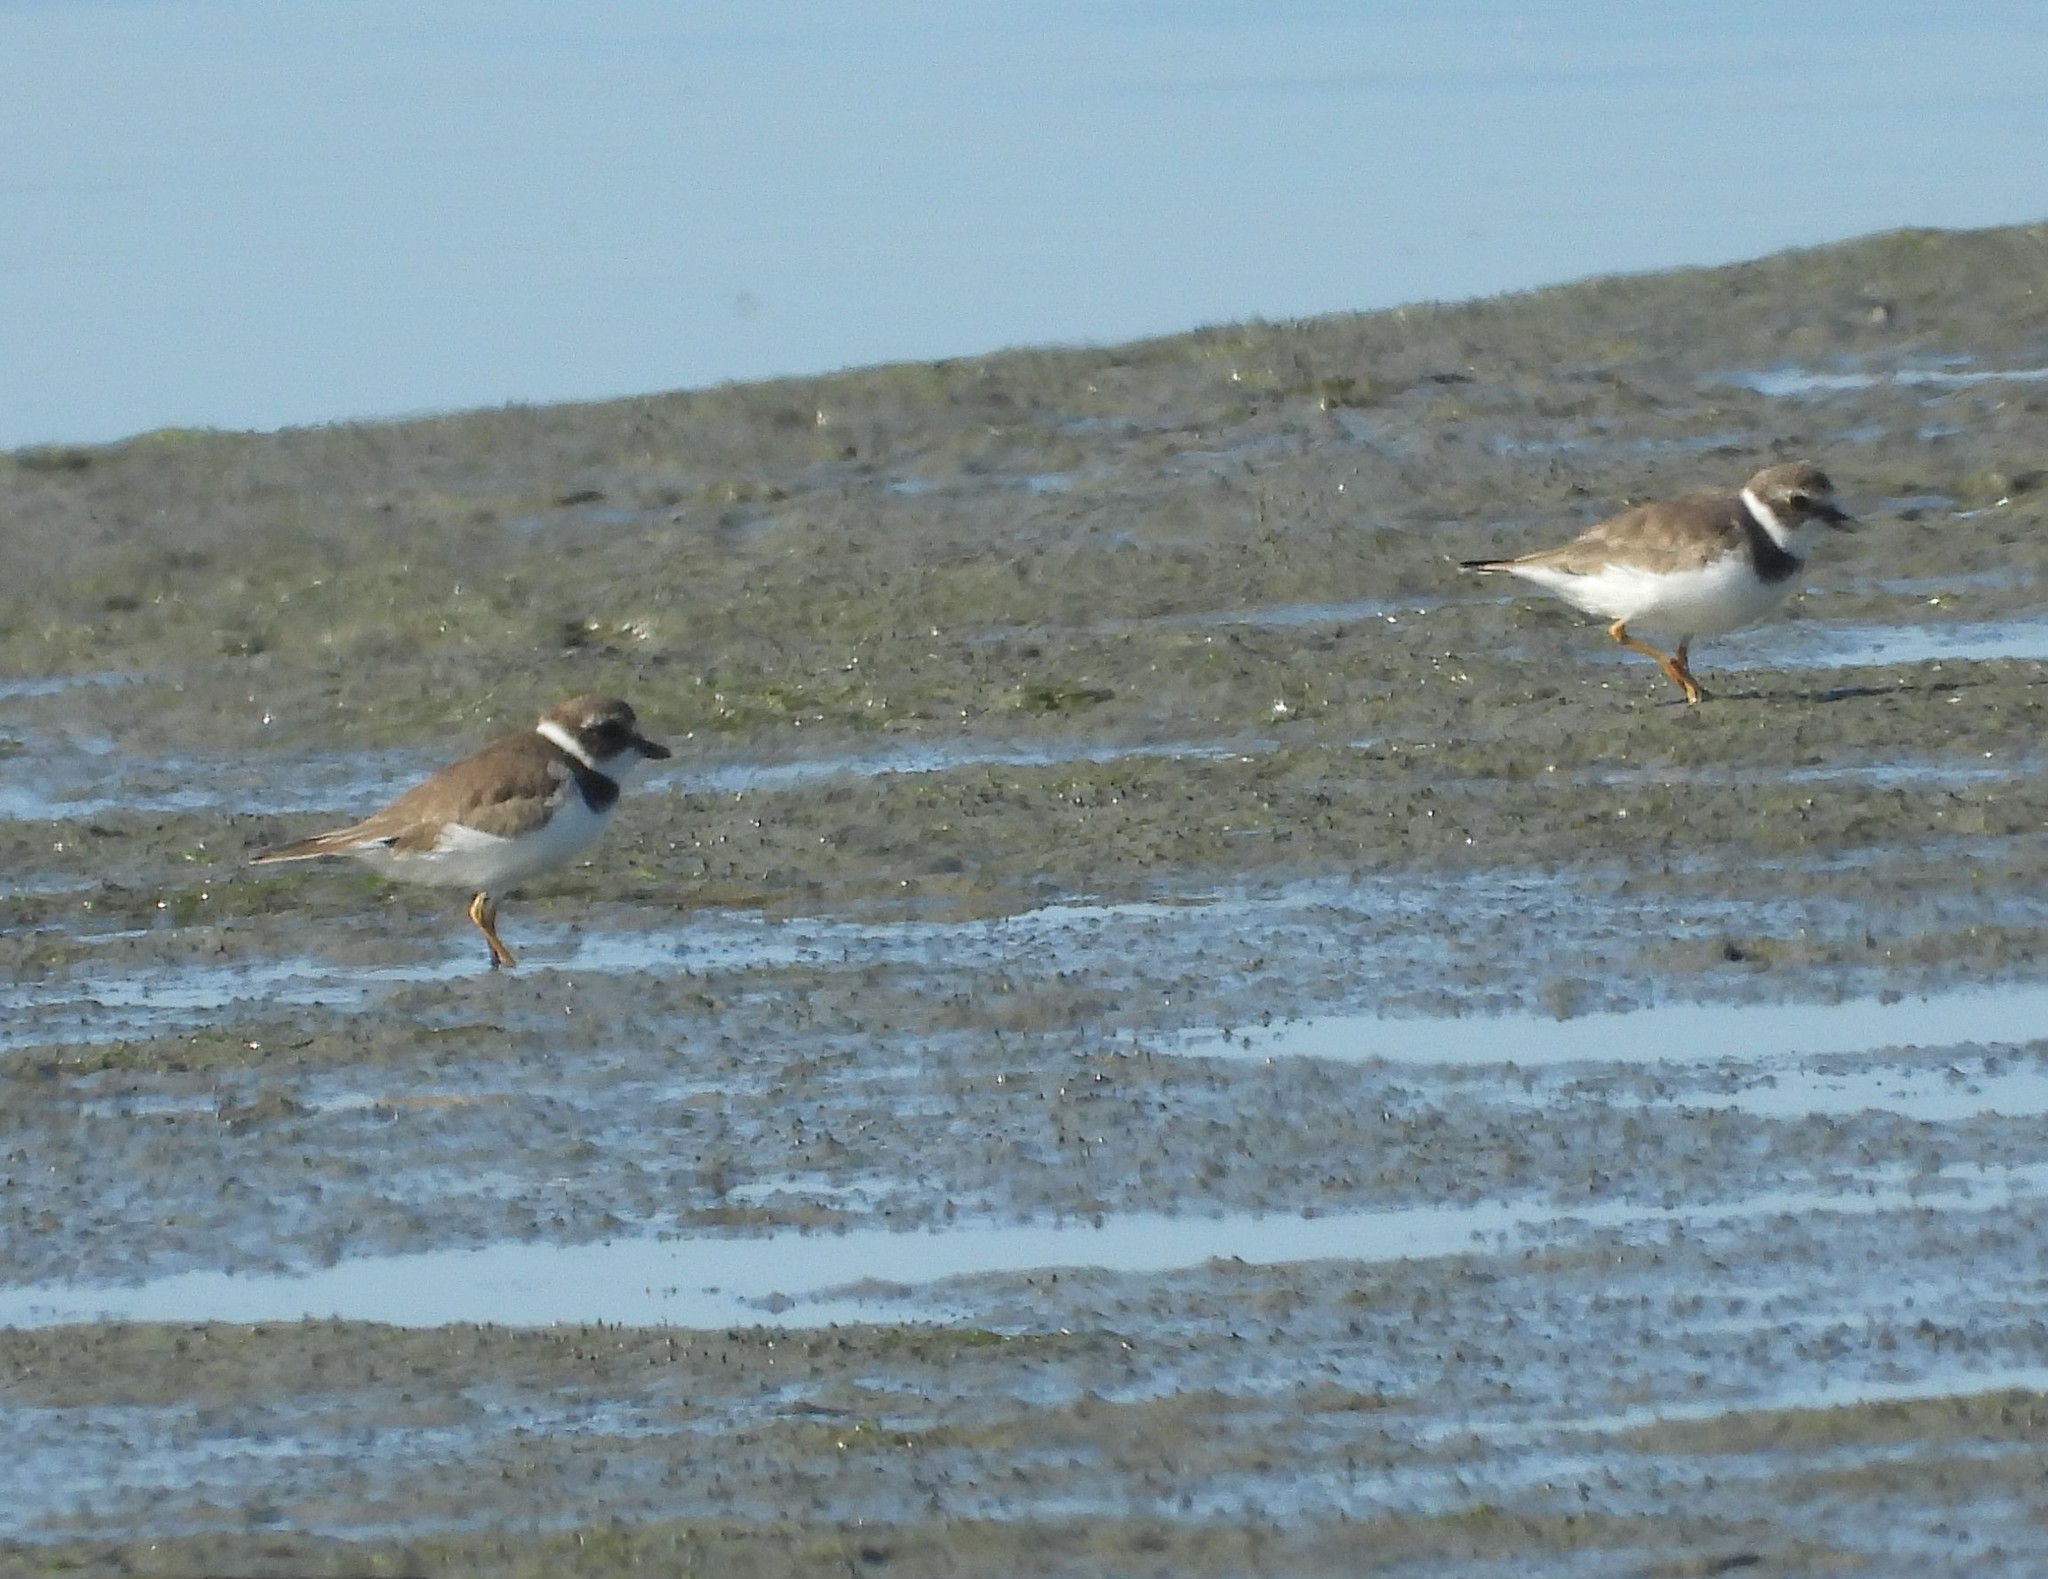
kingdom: Animalia
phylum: Chordata
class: Aves
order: Charadriiformes
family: Charadriidae
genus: Charadrius
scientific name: Charadrius semipalmatus
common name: Semipalmated plover
